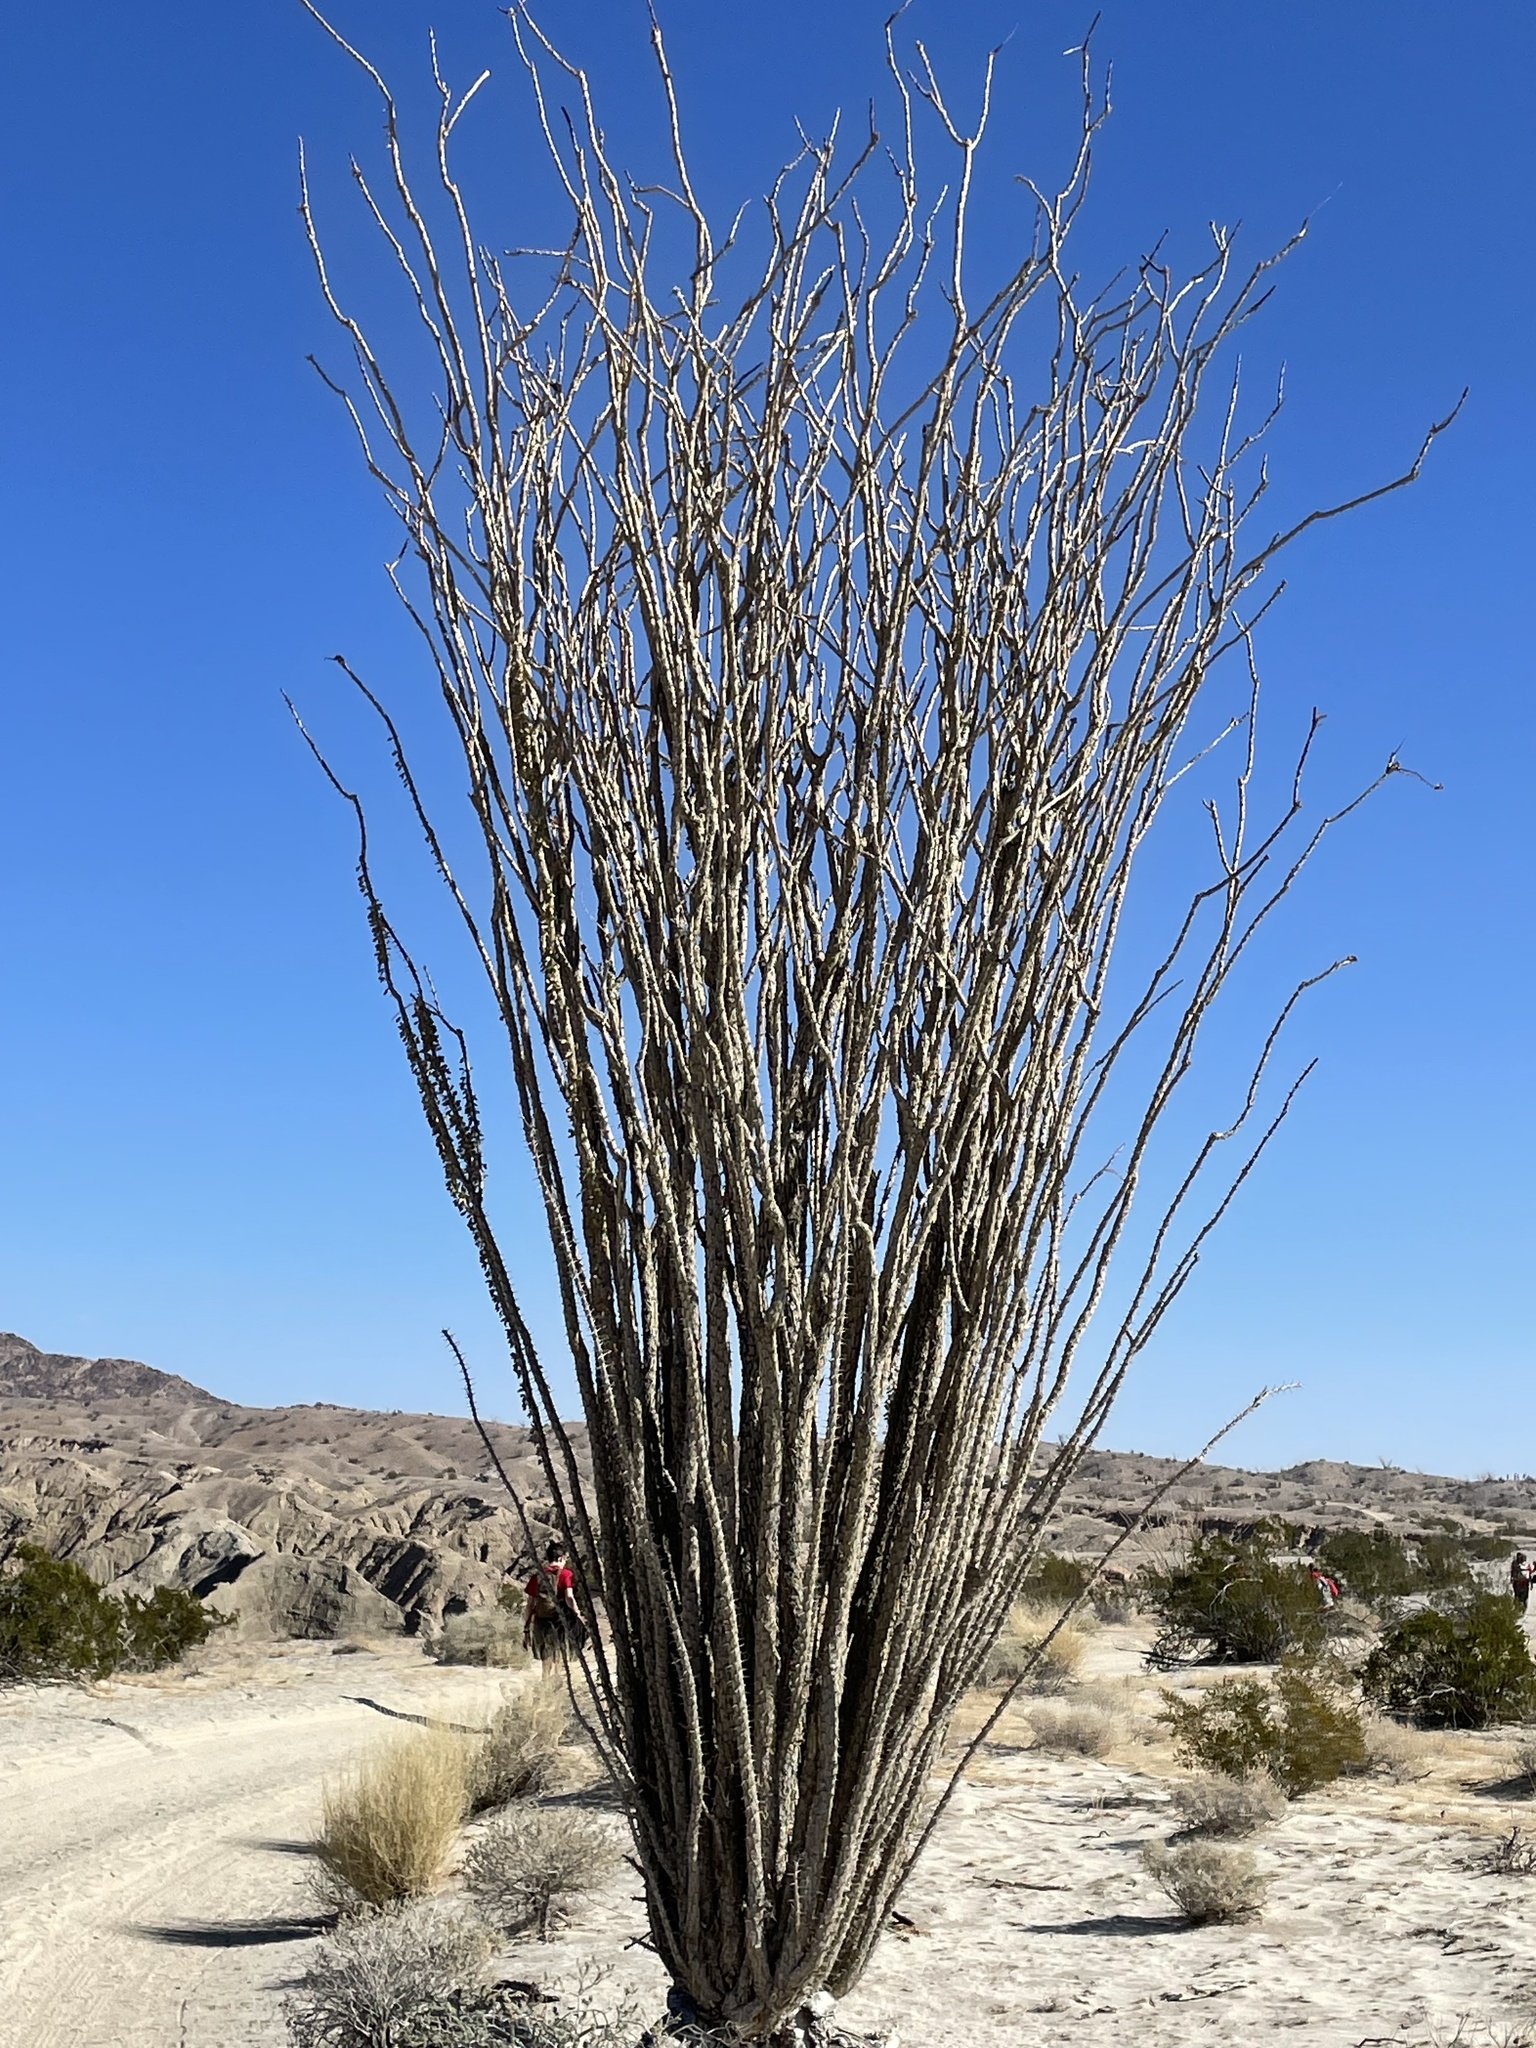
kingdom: Plantae
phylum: Tracheophyta
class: Magnoliopsida
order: Ericales
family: Fouquieriaceae
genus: Fouquieria
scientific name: Fouquieria splendens
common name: Vine-cactus
